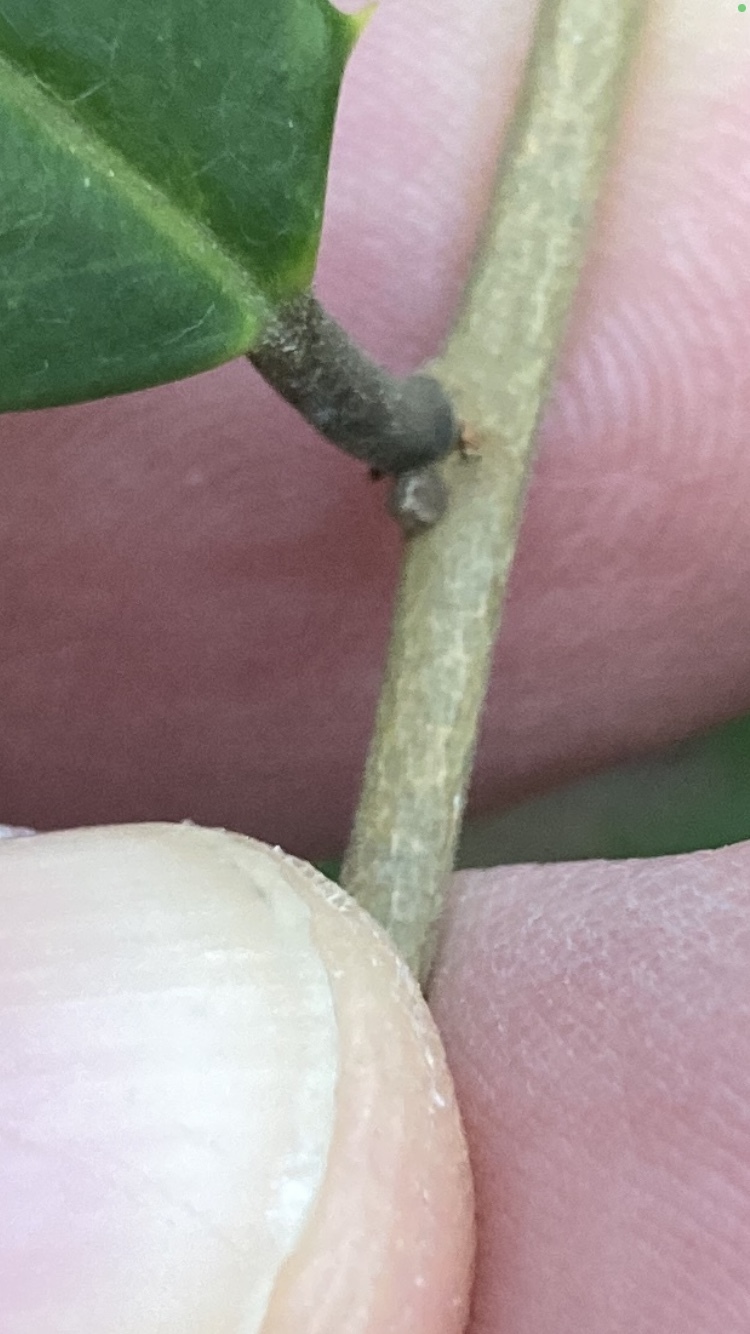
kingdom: Plantae
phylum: Tracheophyta
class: Magnoliopsida
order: Aquifoliales
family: Aquifoliaceae
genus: Ilex
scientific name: Ilex opaca
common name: American holly
